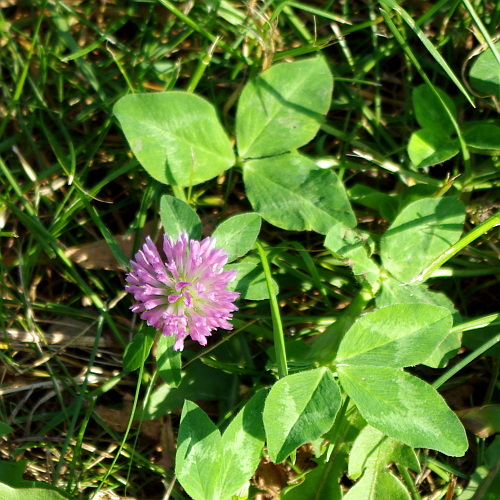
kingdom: Plantae
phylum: Tracheophyta
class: Magnoliopsida
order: Fabales
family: Fabaceae
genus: Trifolium
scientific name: Trifolium pratense
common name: Red clover
